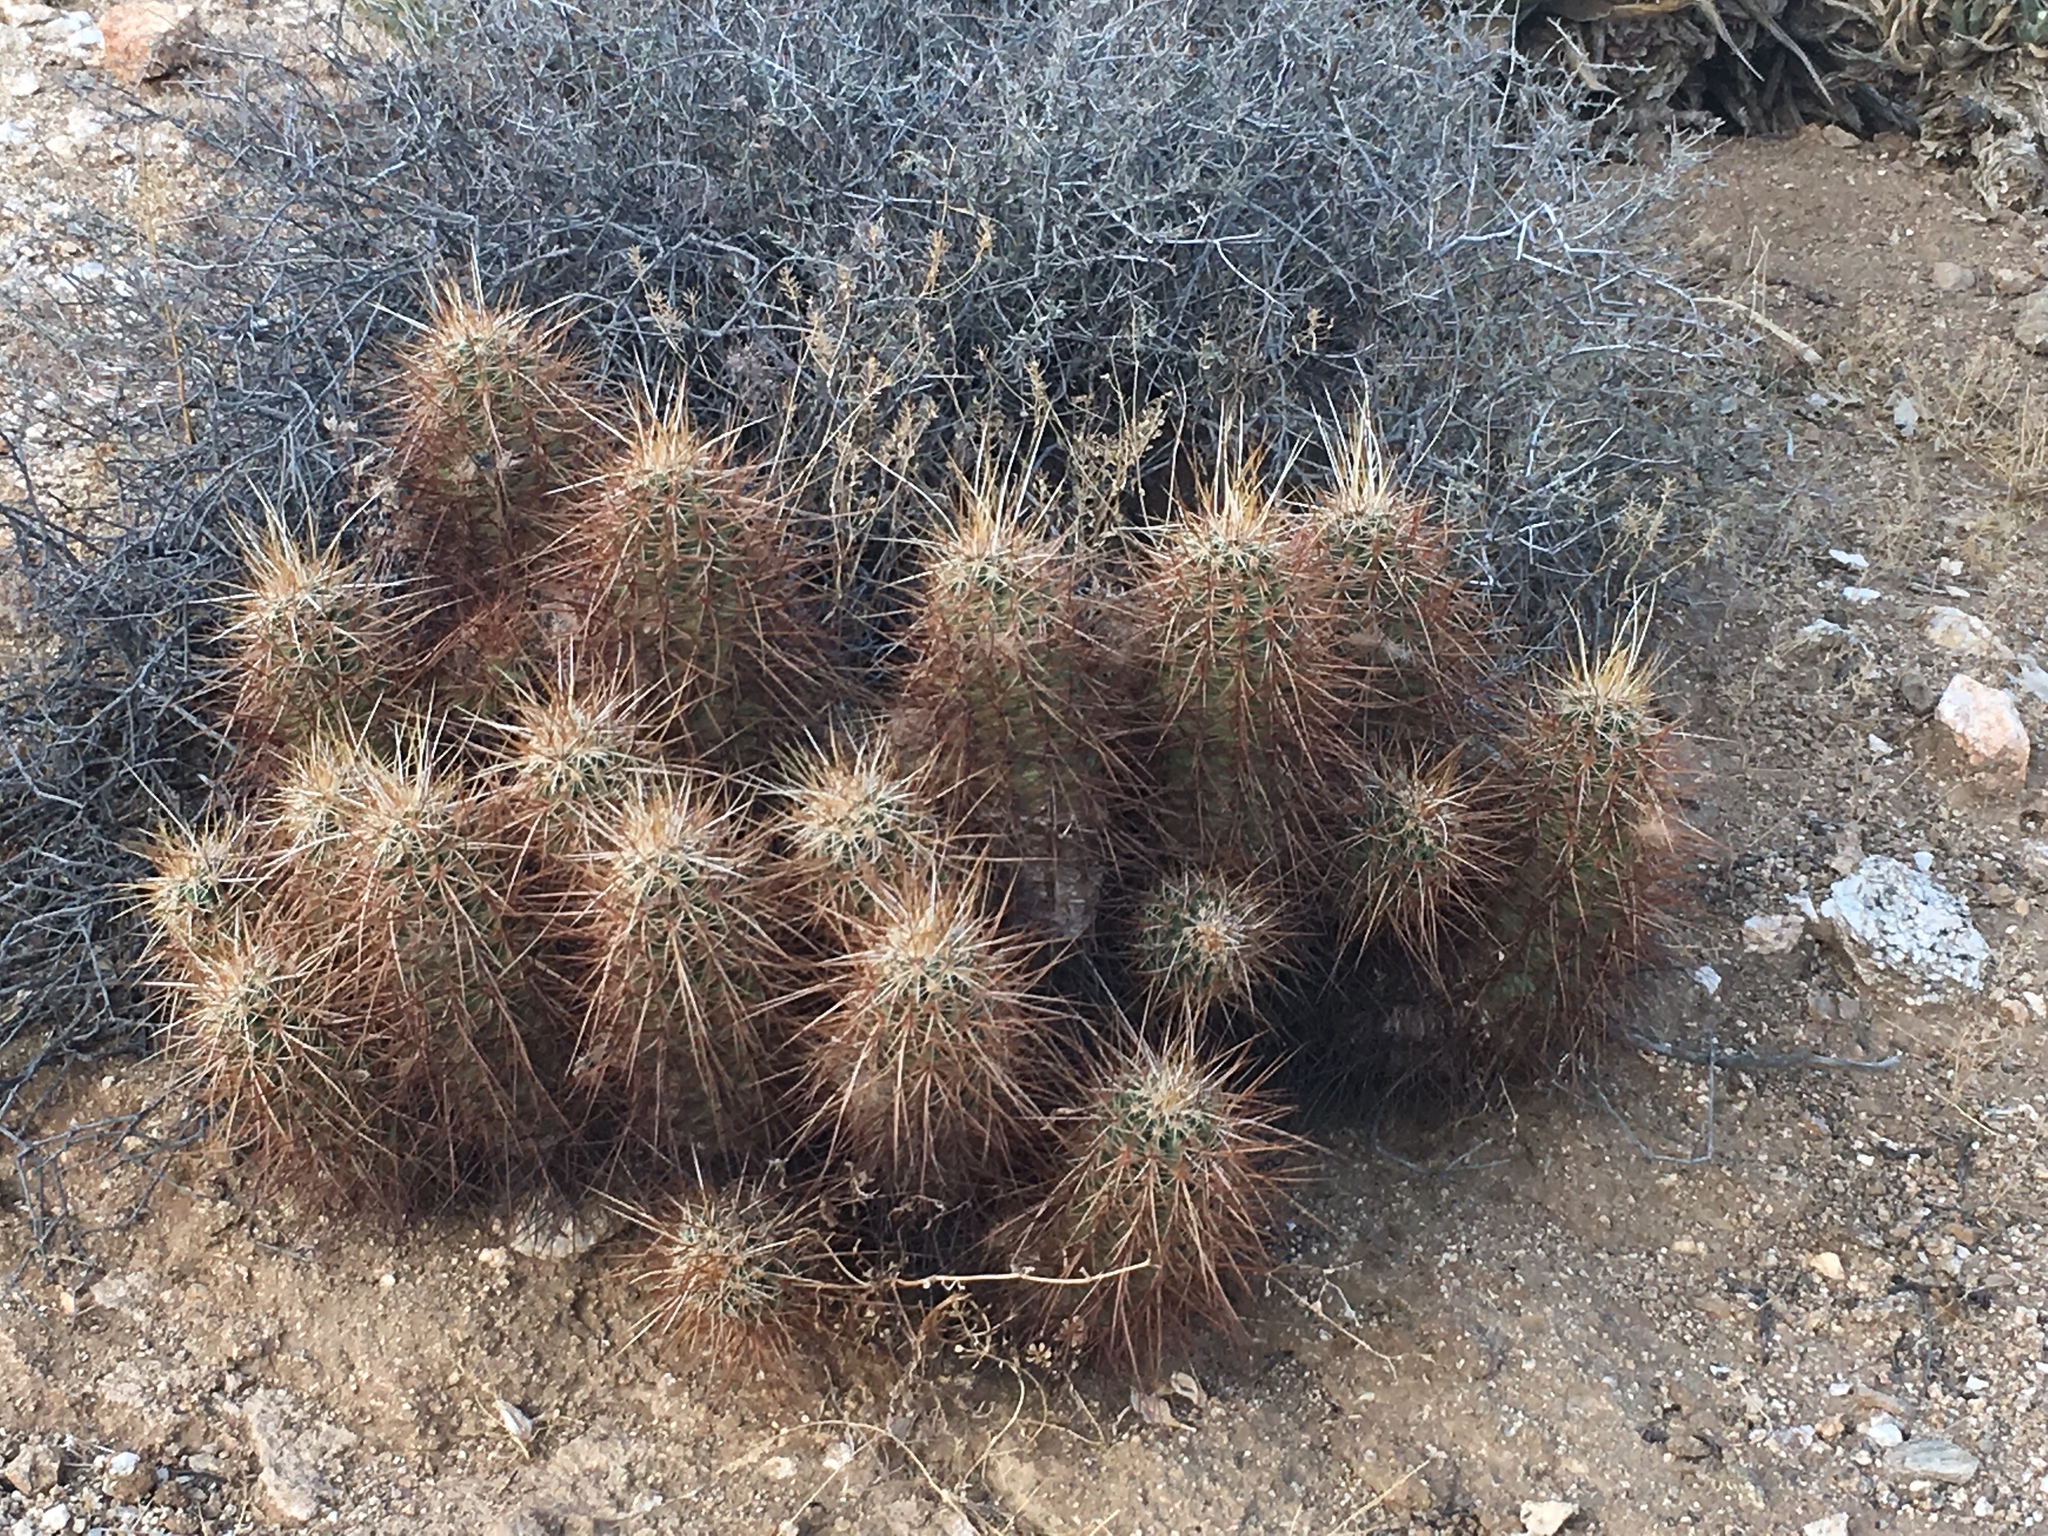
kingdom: Plantae
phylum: Tracheophyta
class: Magnoliopsida
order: Caryophyllales
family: Cactaceae
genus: Echinocereus
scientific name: Echinocereus engelmannii
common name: Engelmann's hedgehog cactus
